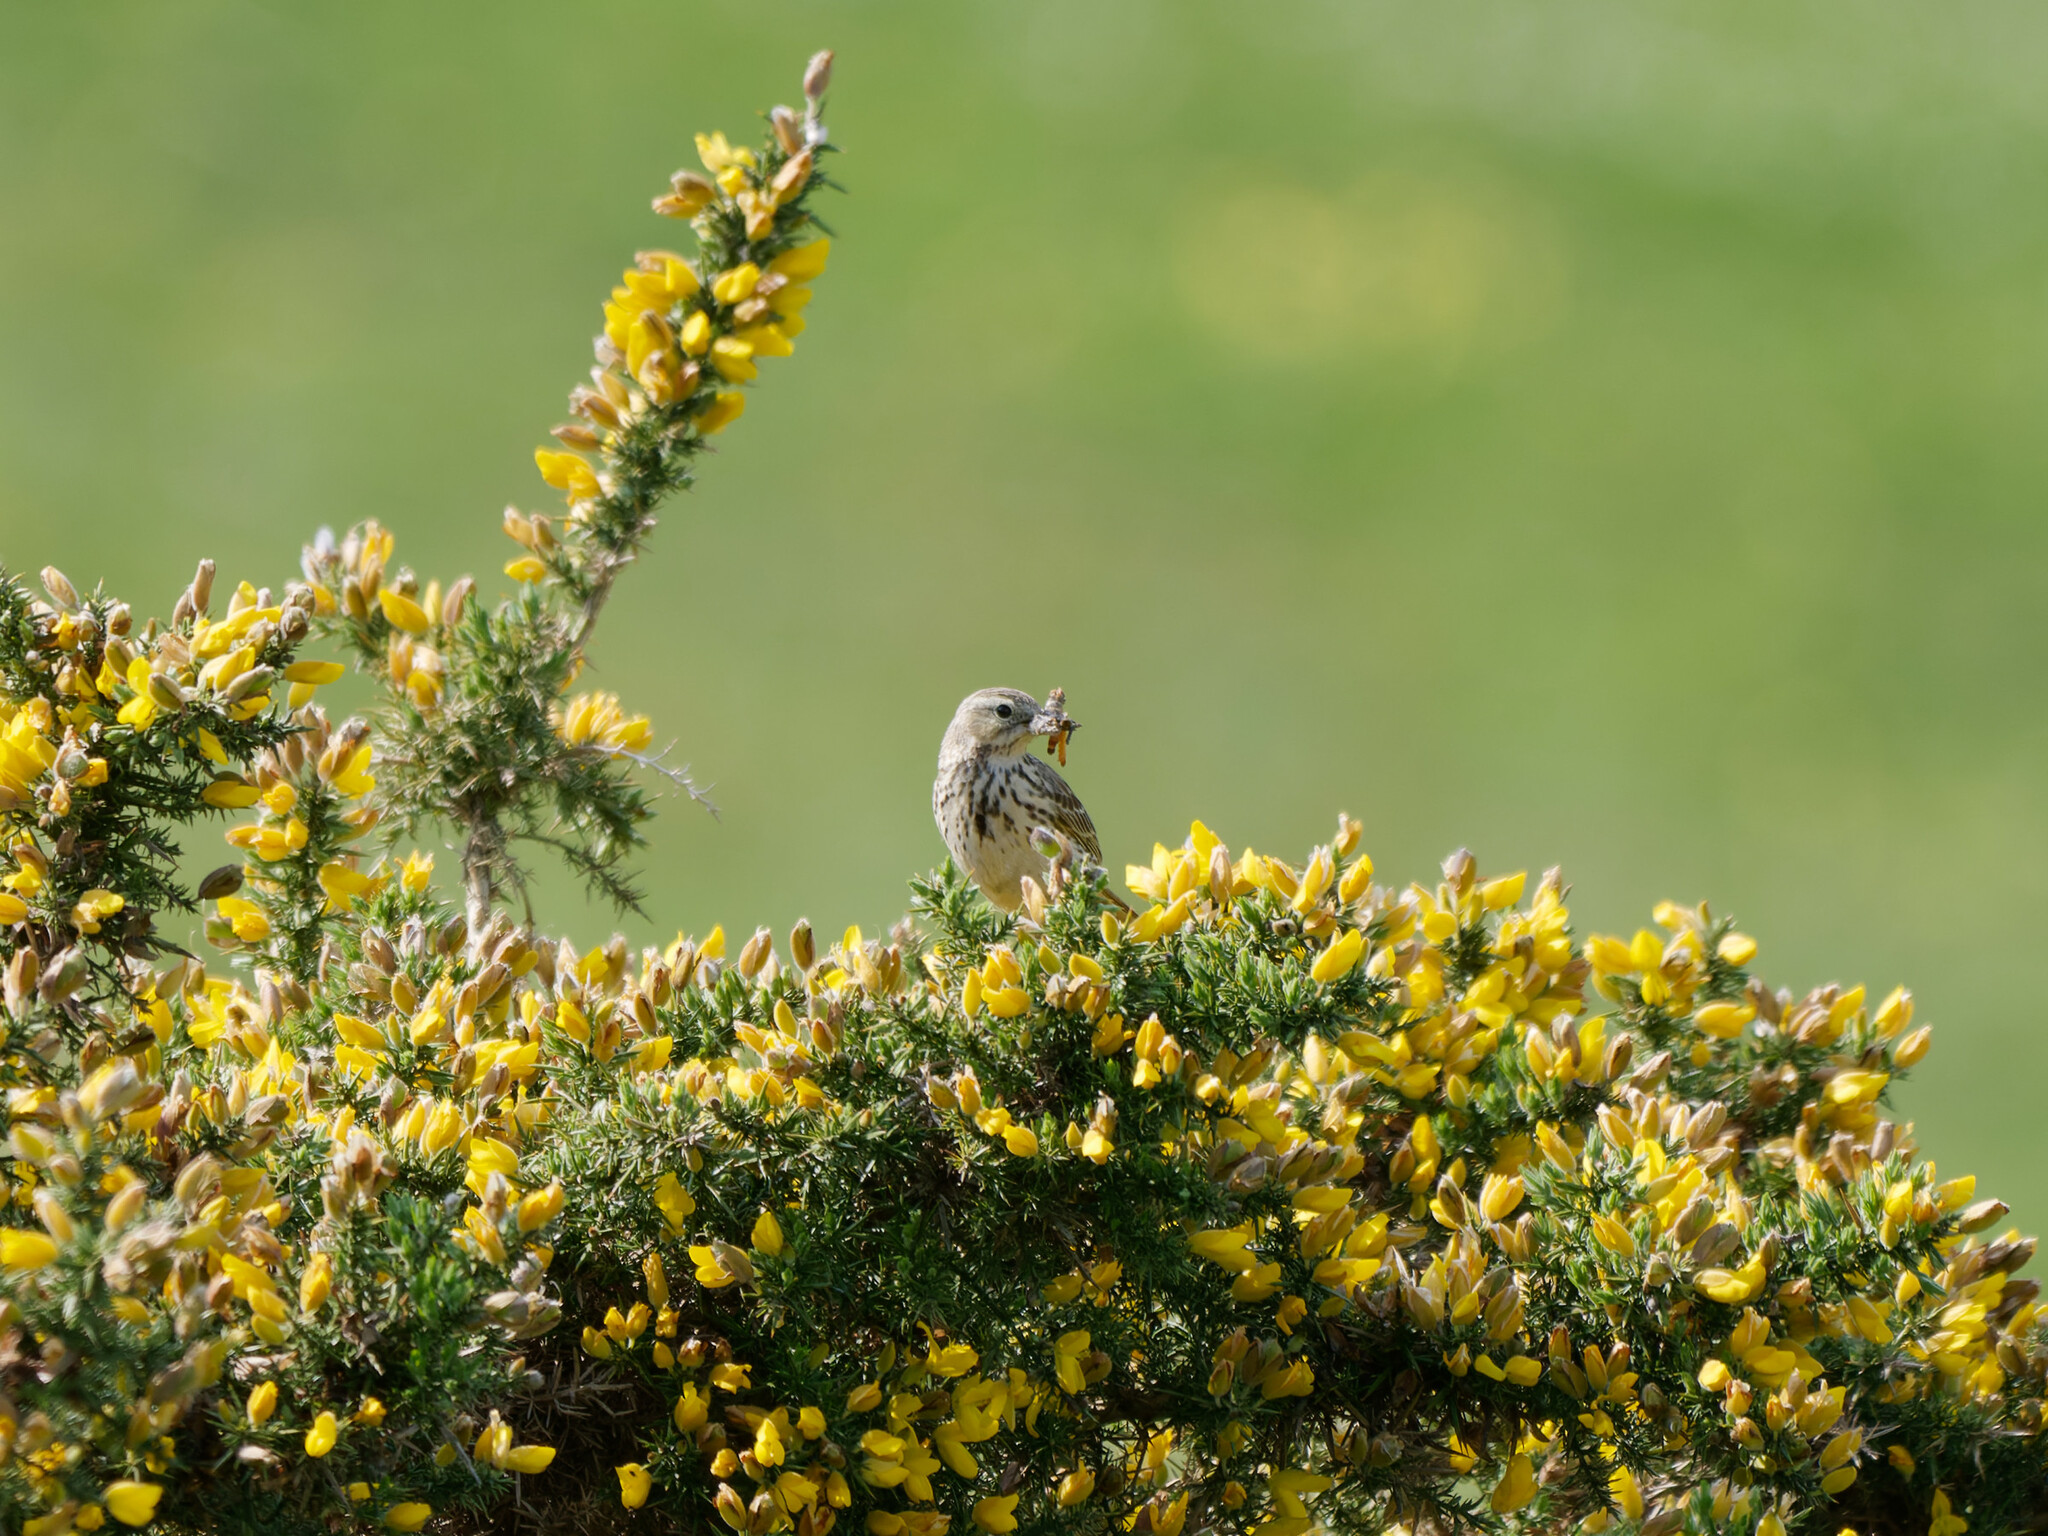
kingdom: Animalia
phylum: Chordata
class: Aves
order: Passeriformes
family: Motacillidae
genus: Anthus
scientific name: Anthus pratensis
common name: Meadow pipit
